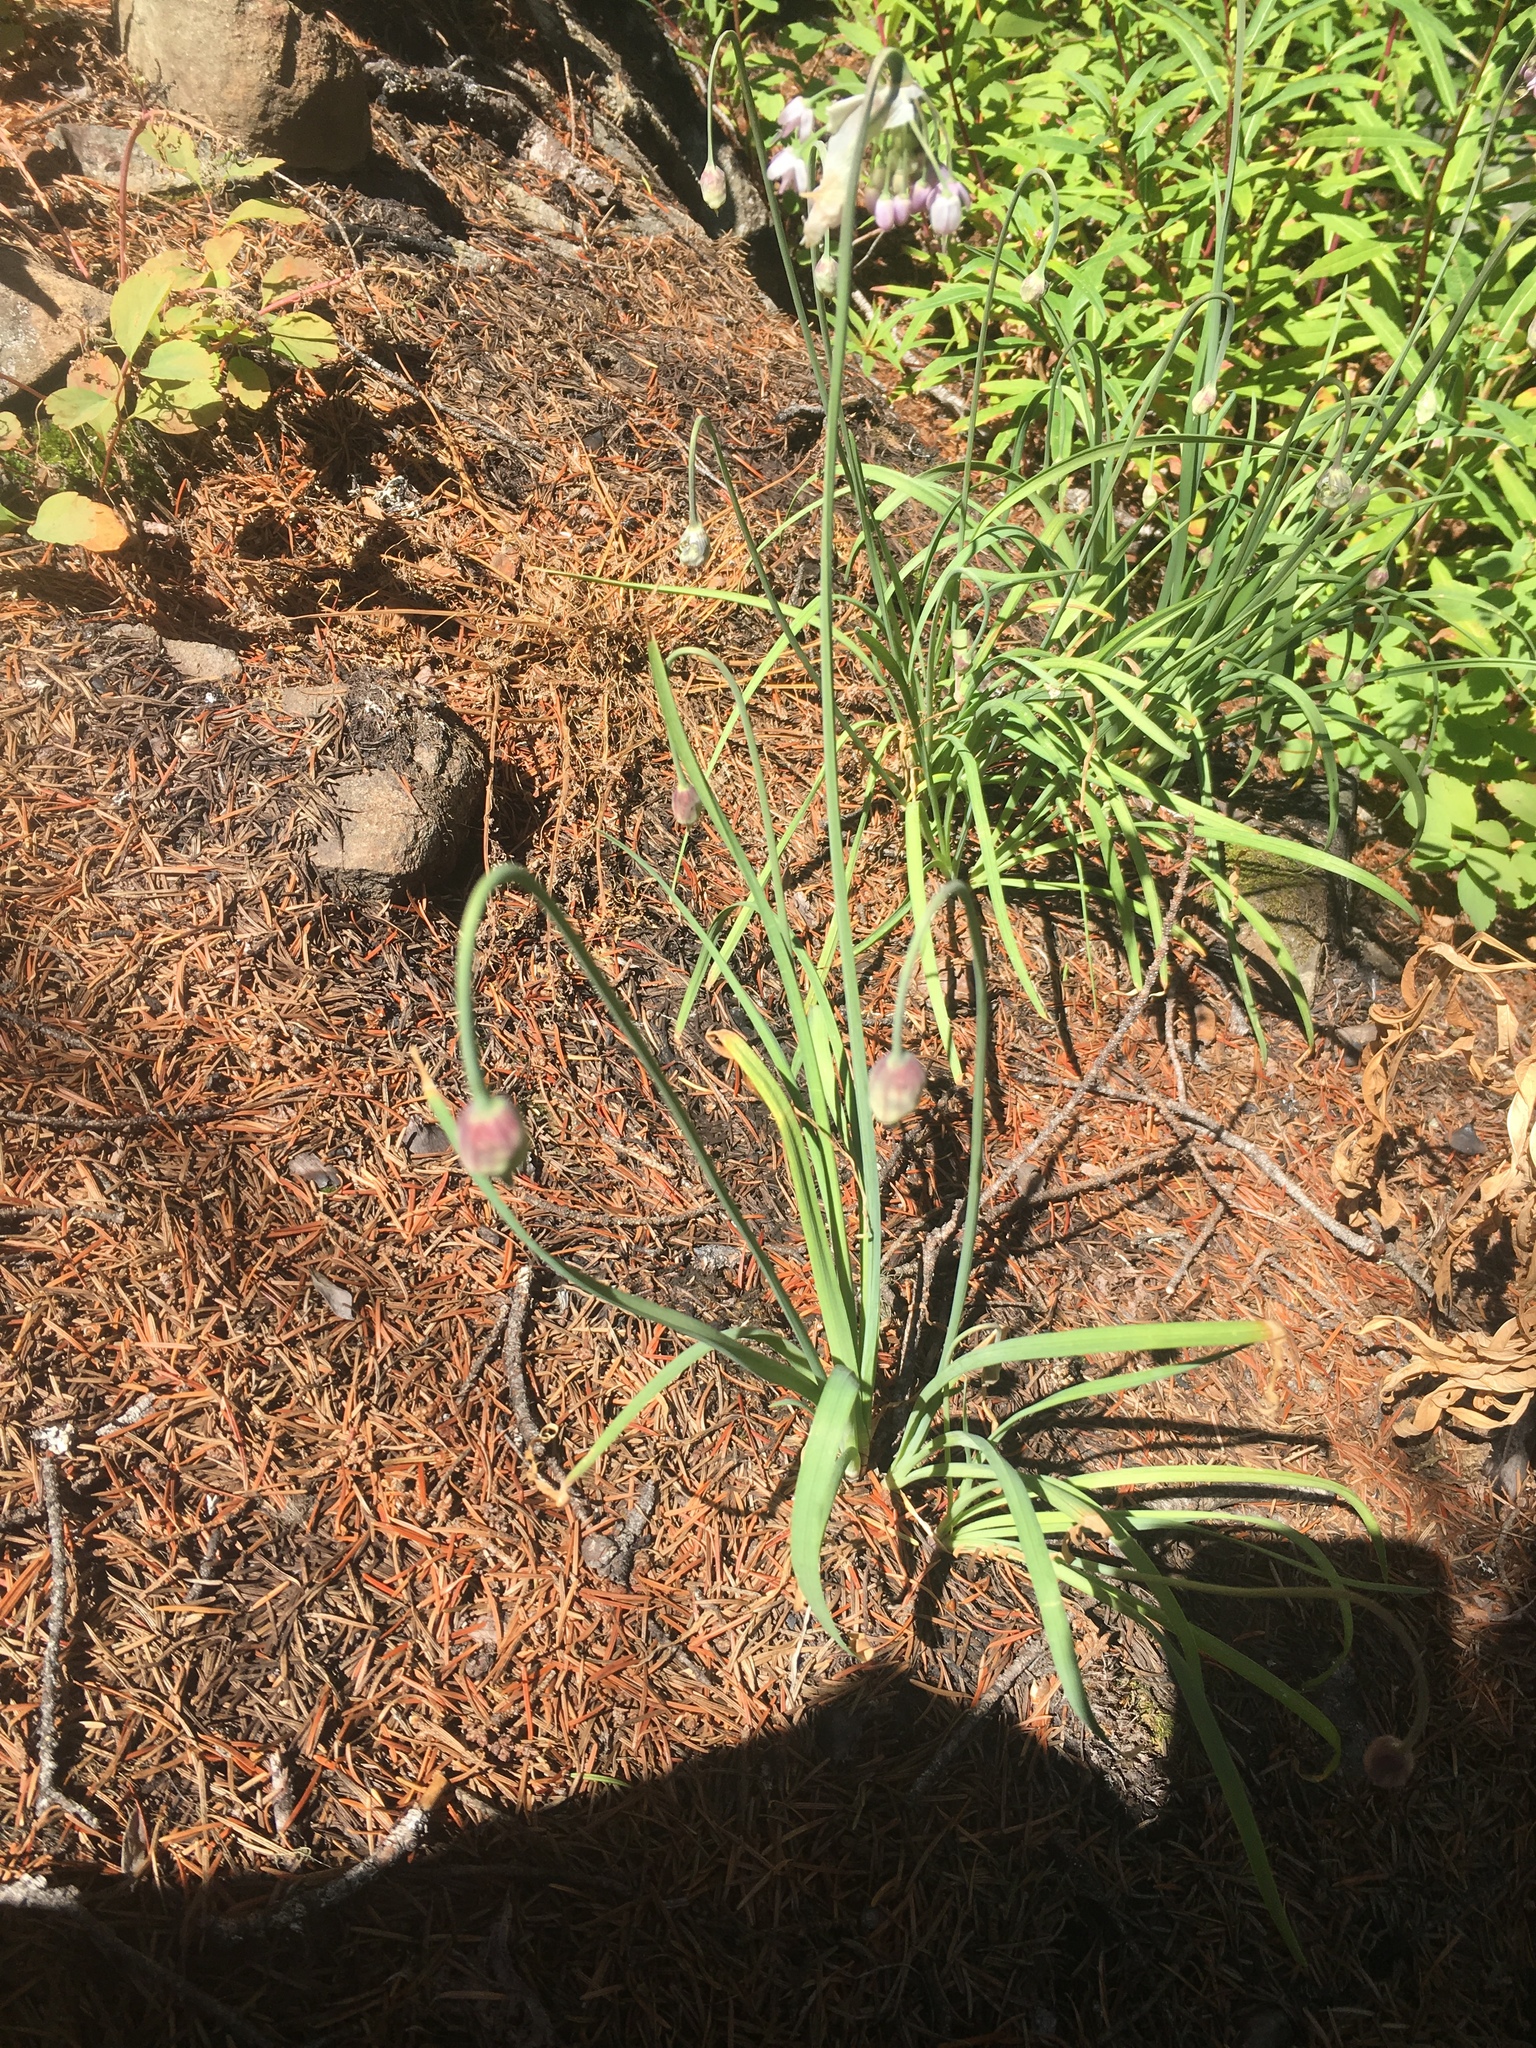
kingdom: Plantae
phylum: Tracheophyta
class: Liliopsida
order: Asparagales
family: Amaryllidaceae
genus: Allium
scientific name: Allium cernuum
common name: Nodding onion
